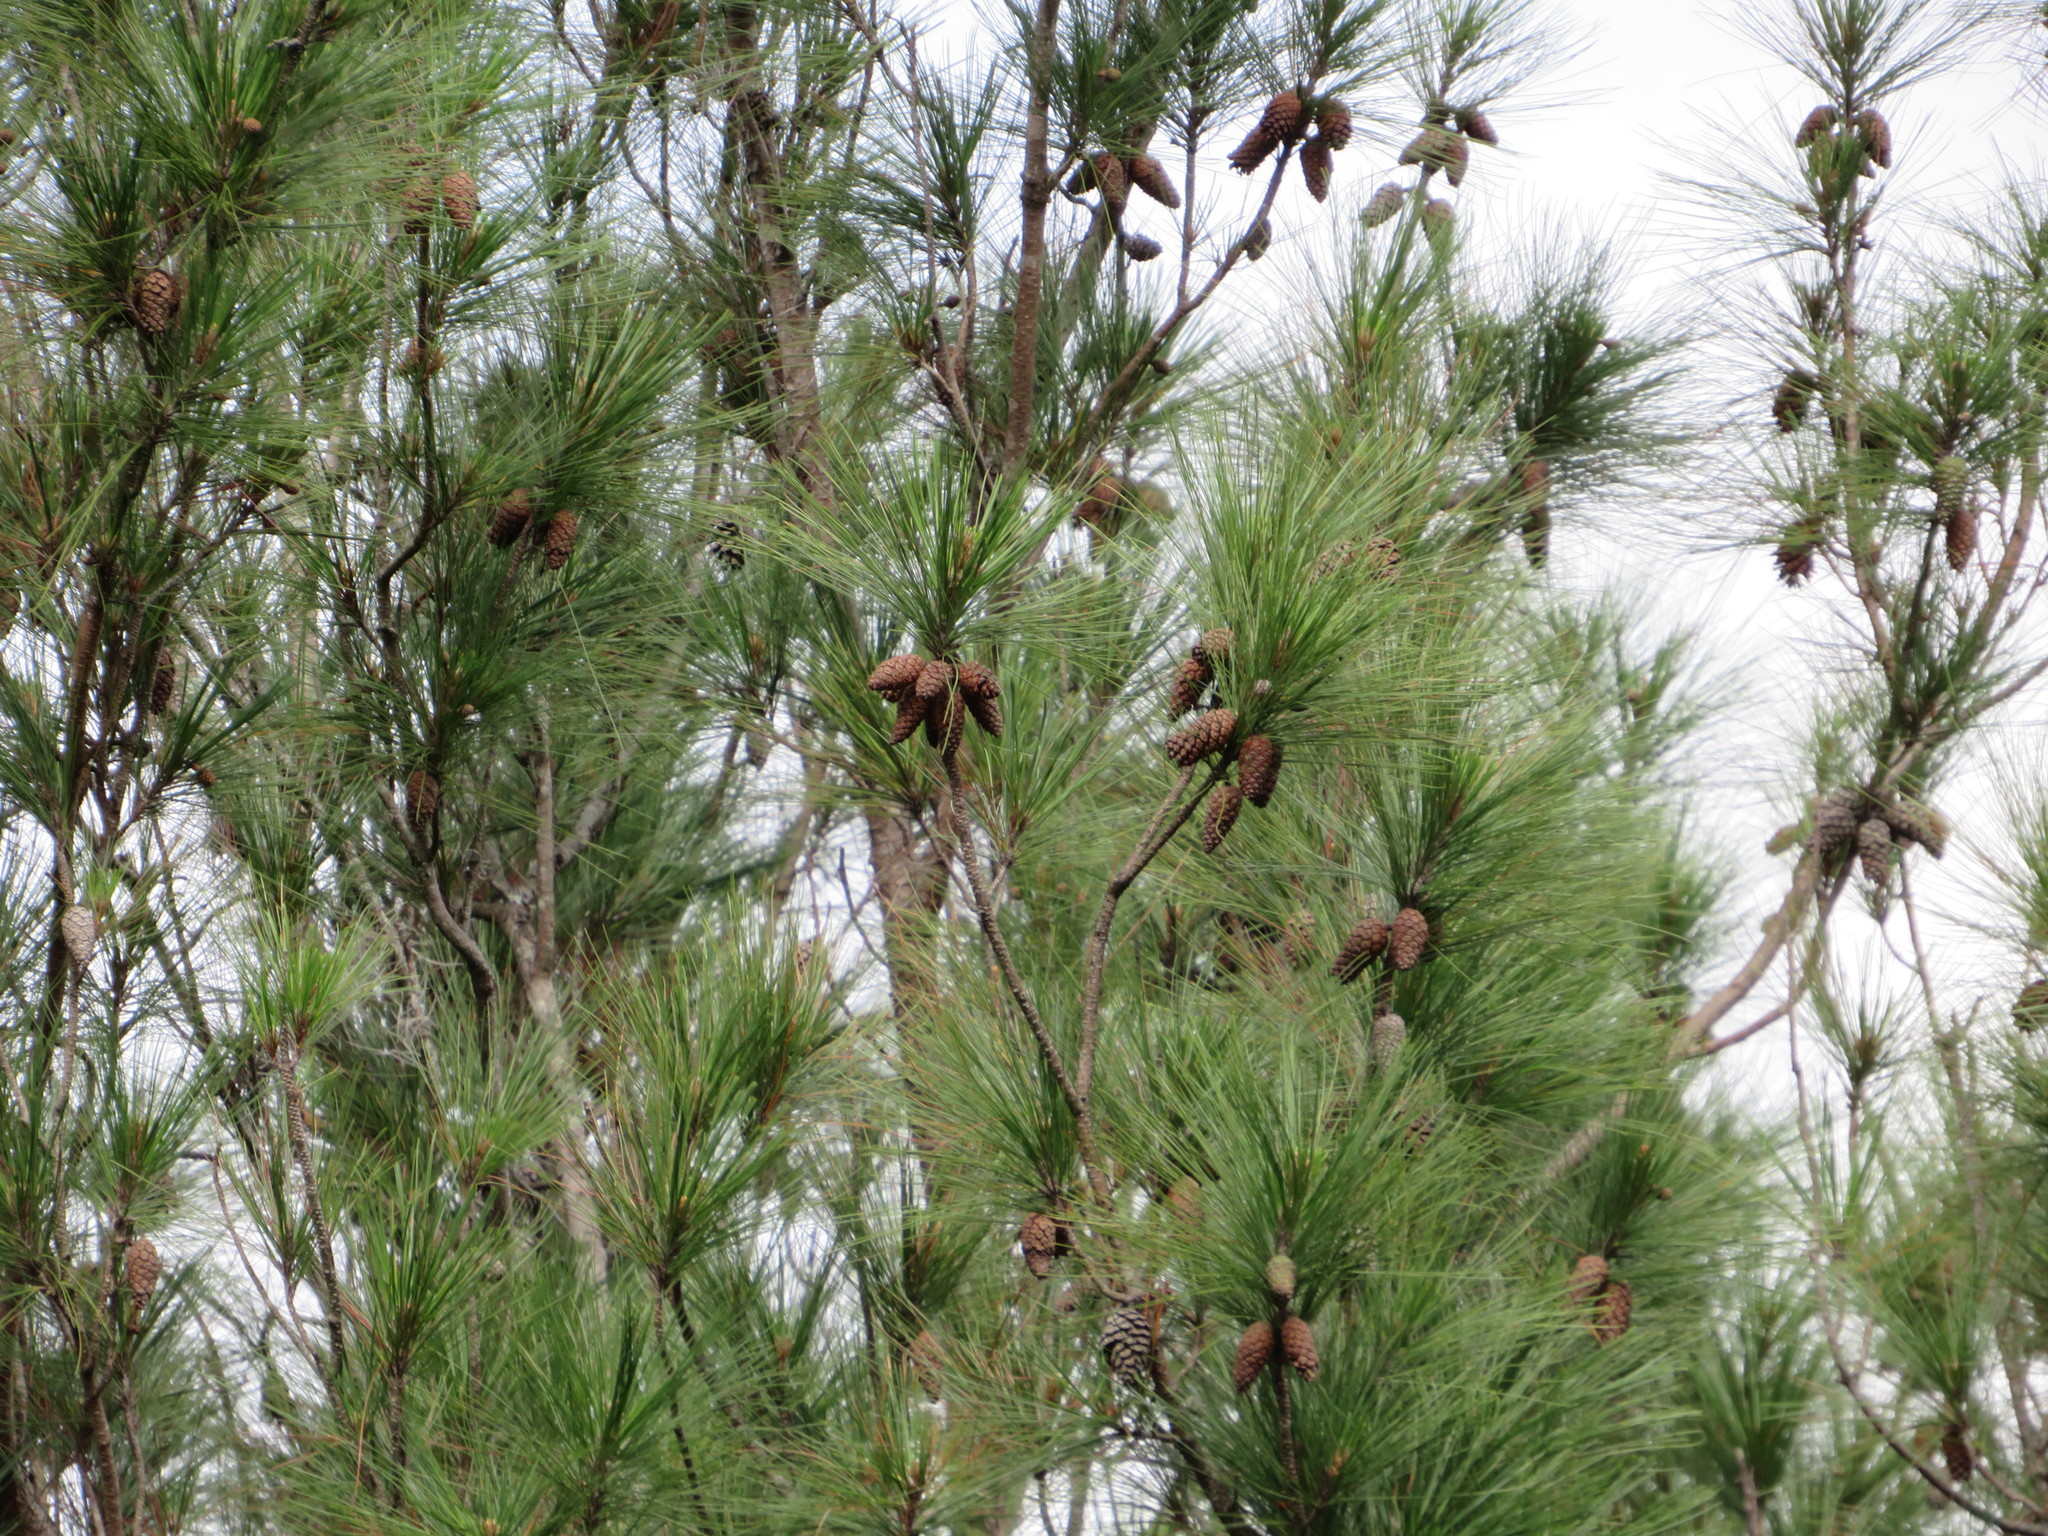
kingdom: Plantae
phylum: Tracheophyta
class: Pinopsida
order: Pinales
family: Pinaceae
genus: Pinus
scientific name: Pinus occidentalis
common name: Hispaniolan pine
